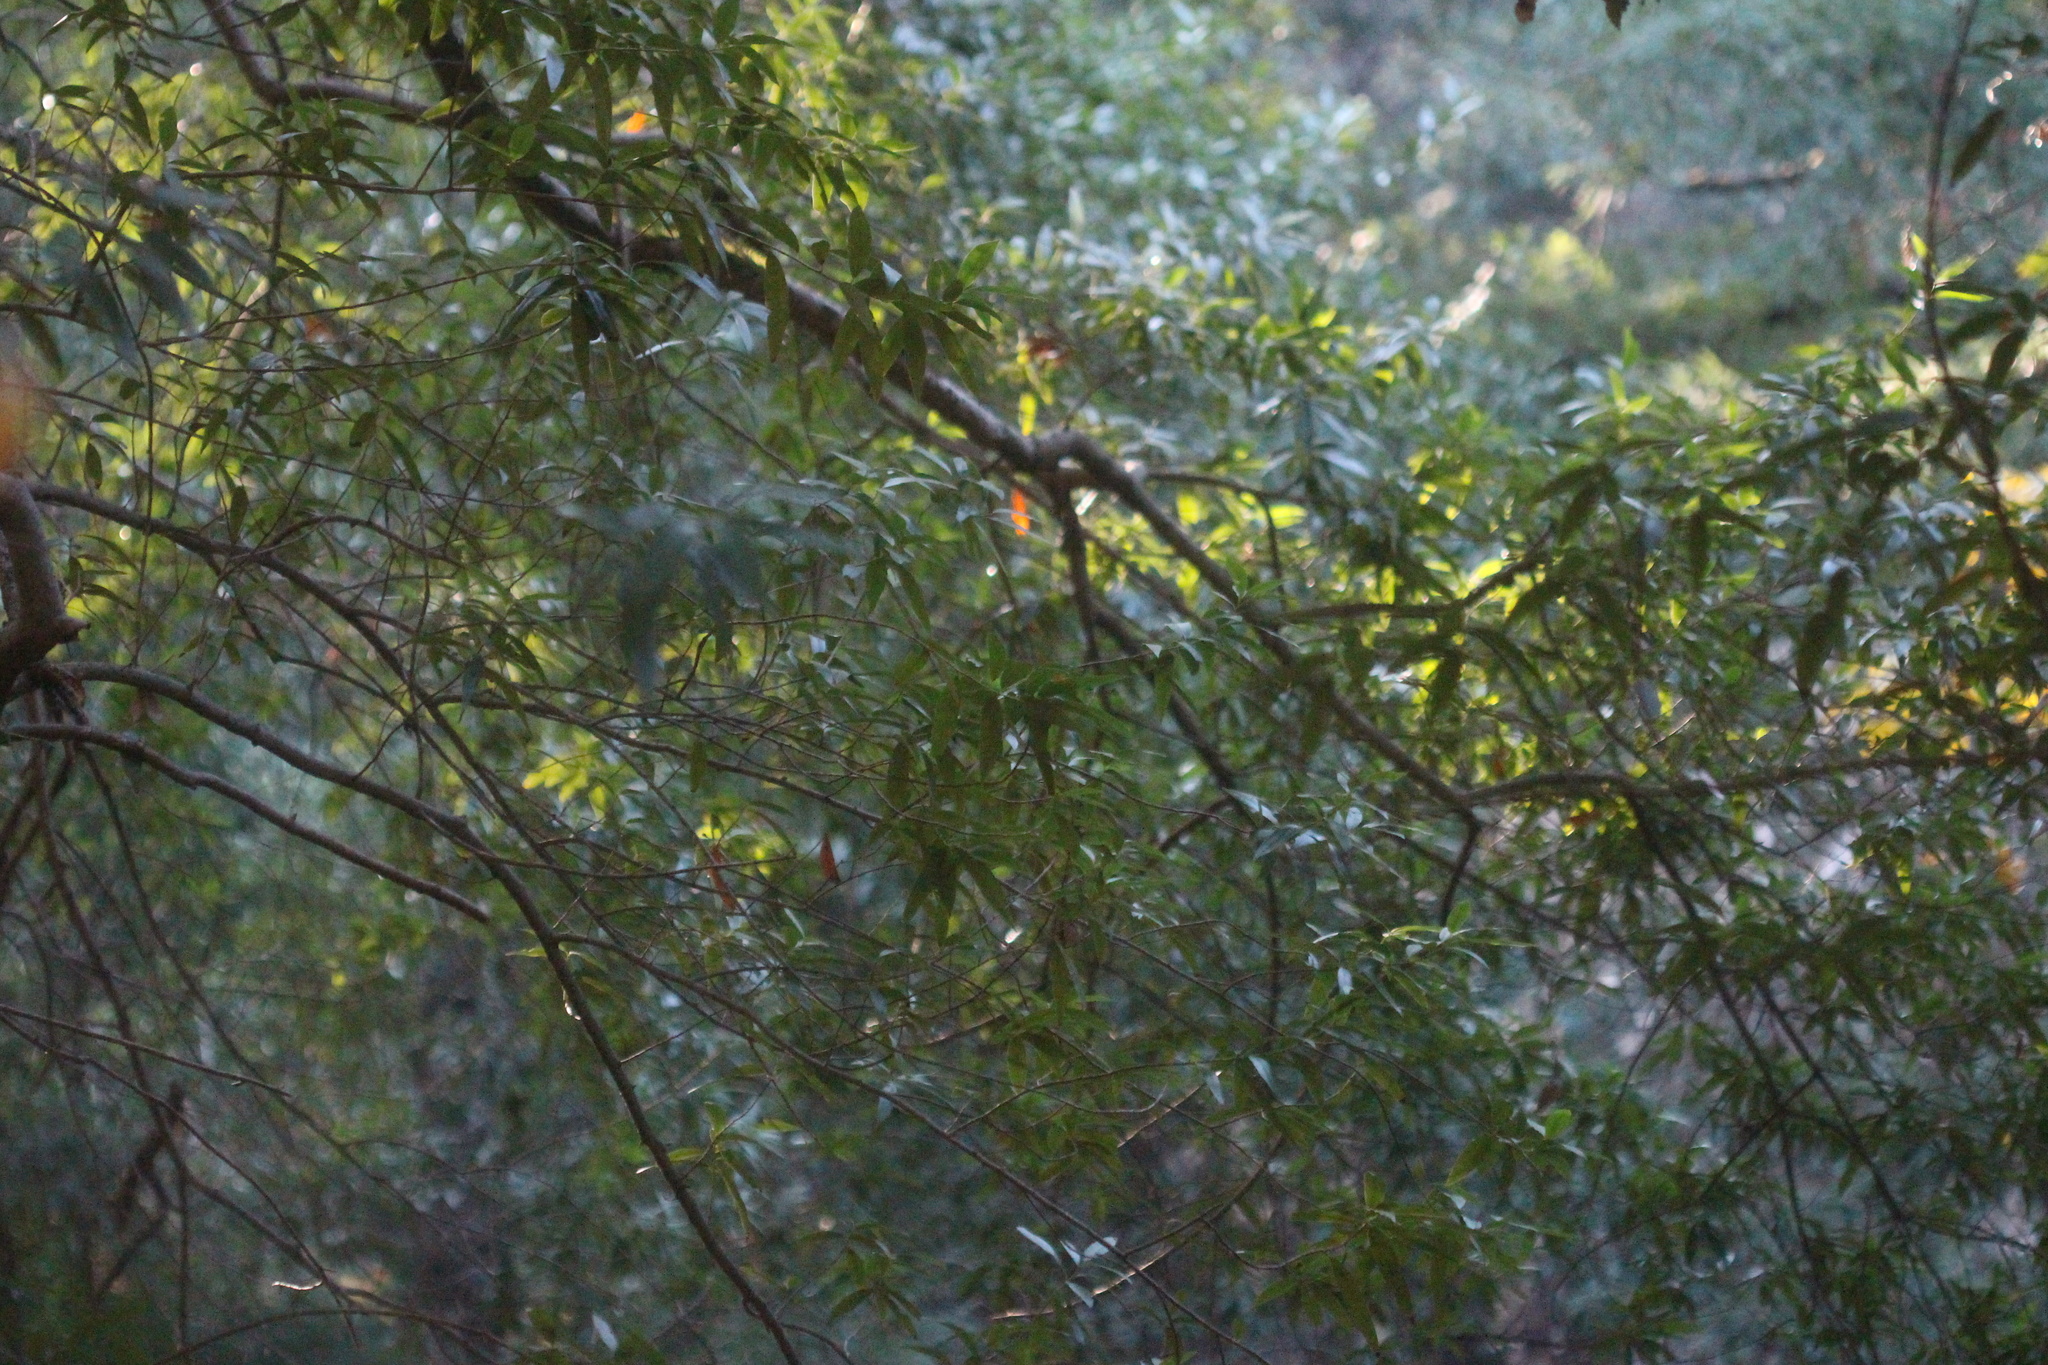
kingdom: Plantae
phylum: Tracheophyta
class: Magnoliopsida
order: Laurales
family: Lauraceae
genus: Umbellularia
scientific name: Umbellularia californica
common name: California bay
